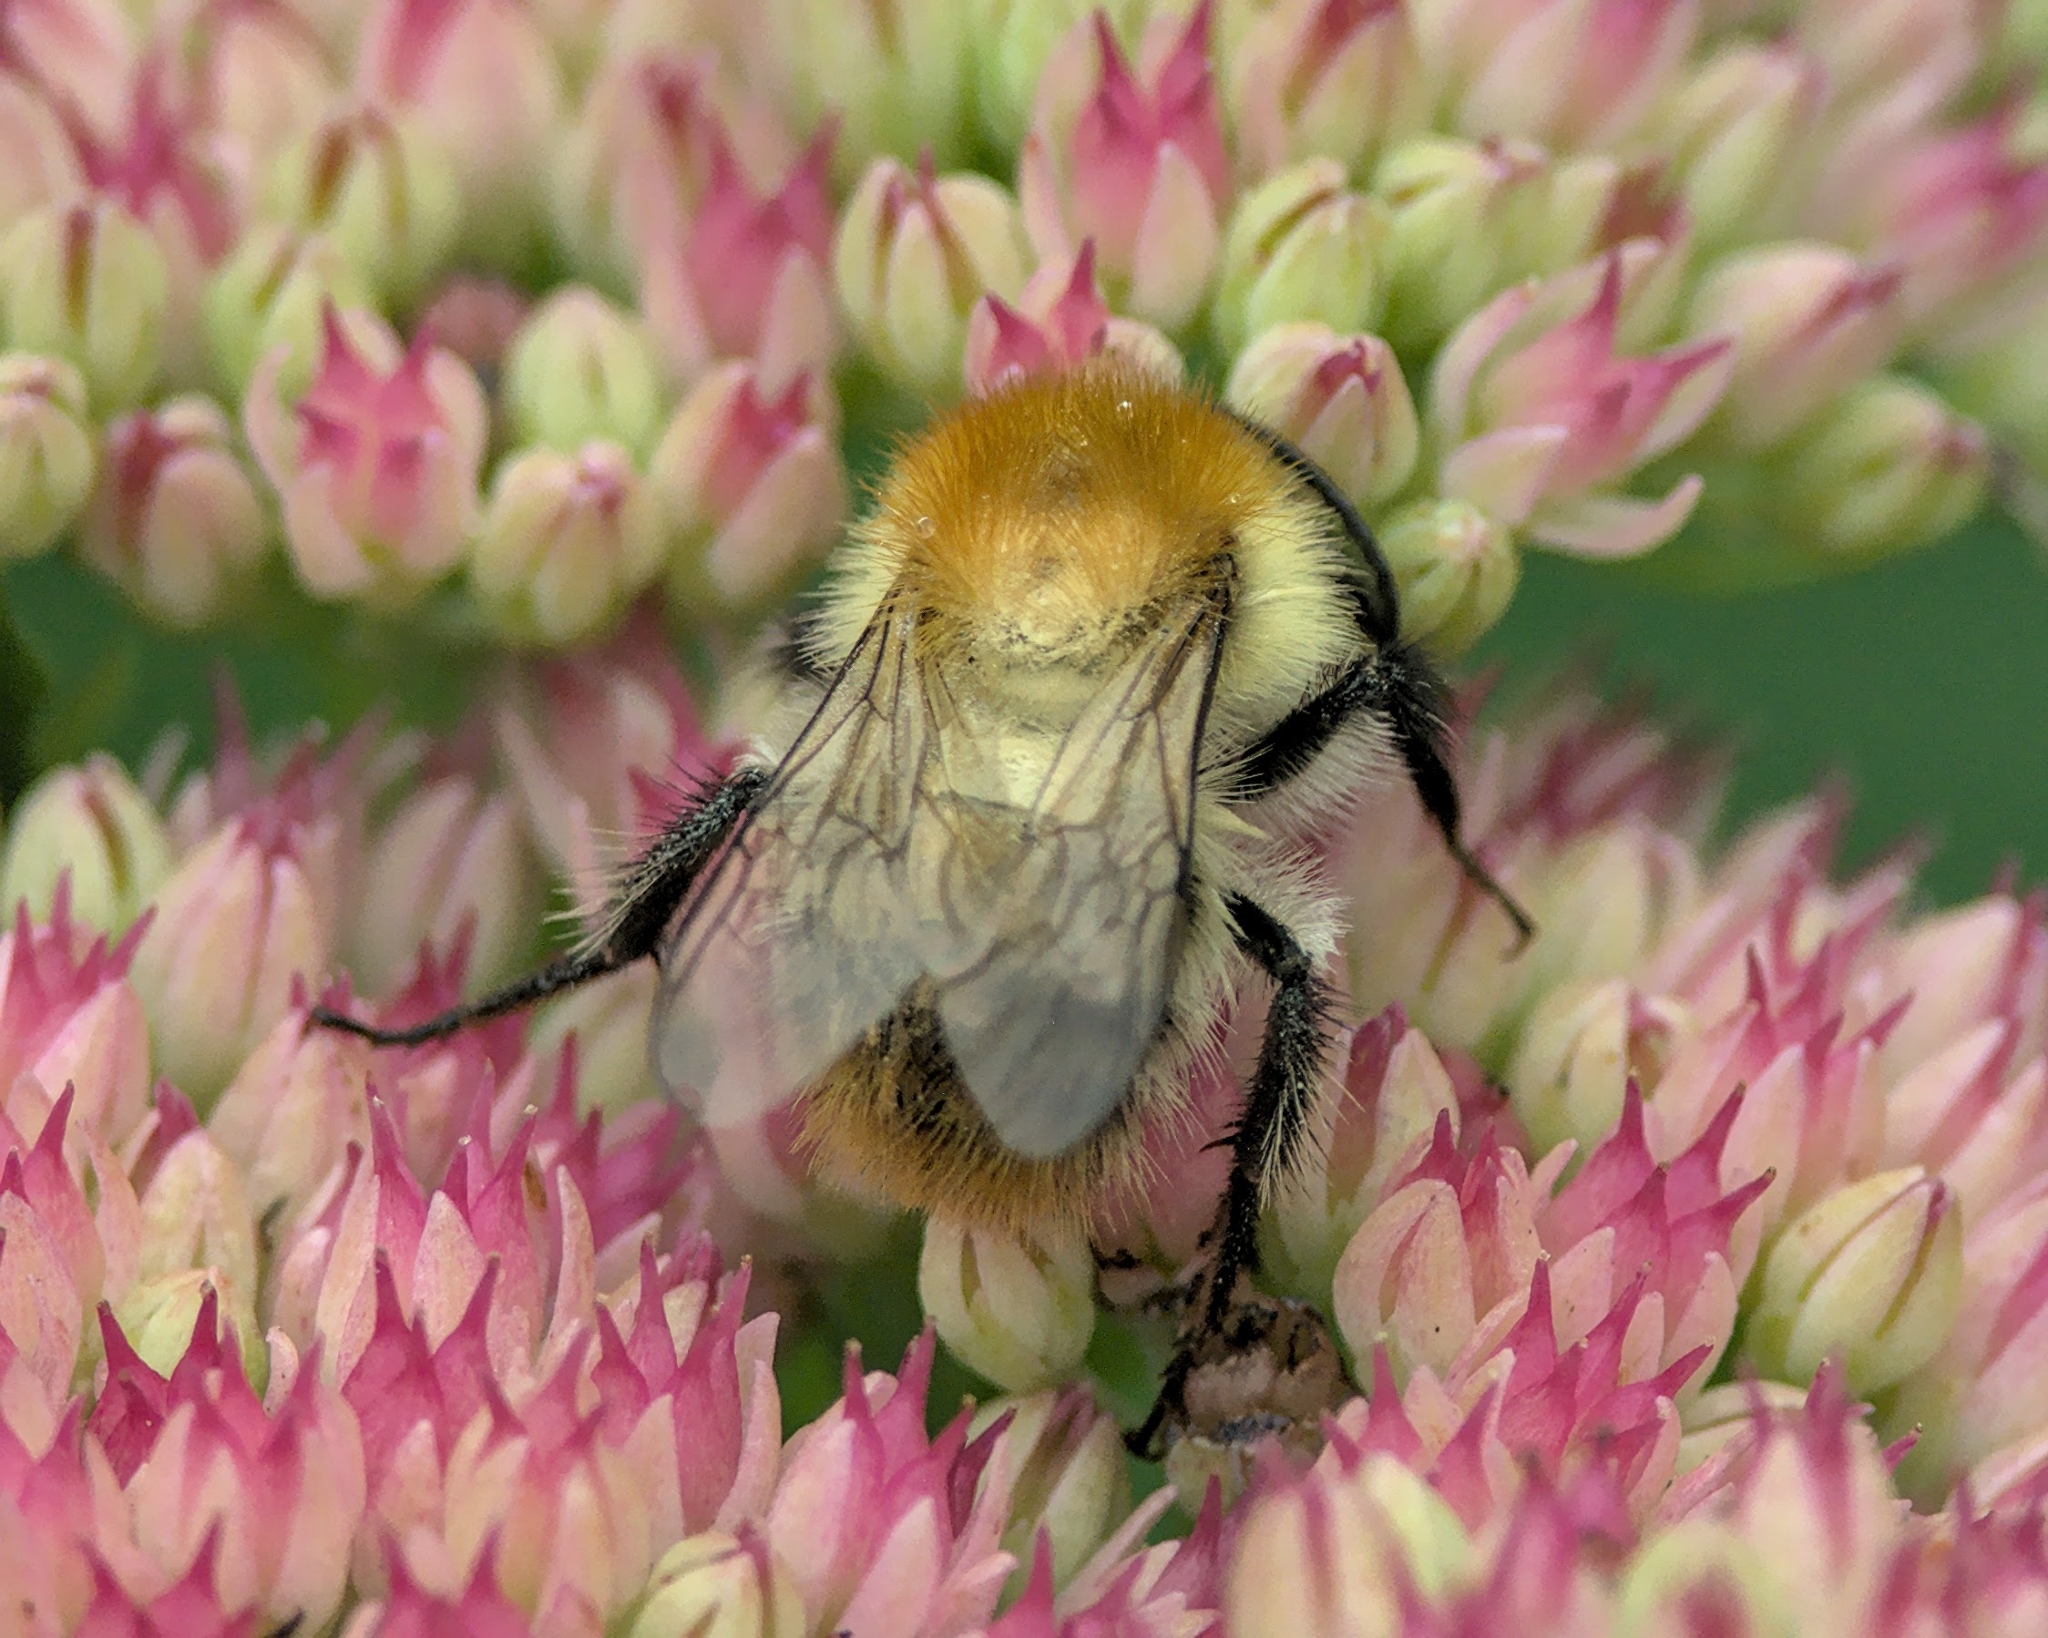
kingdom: Animalia
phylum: Arthropoda
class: Insecta
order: Hymenoptera
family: Apidae
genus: Bombus
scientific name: Bombus pascuorum
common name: Common carder bee
